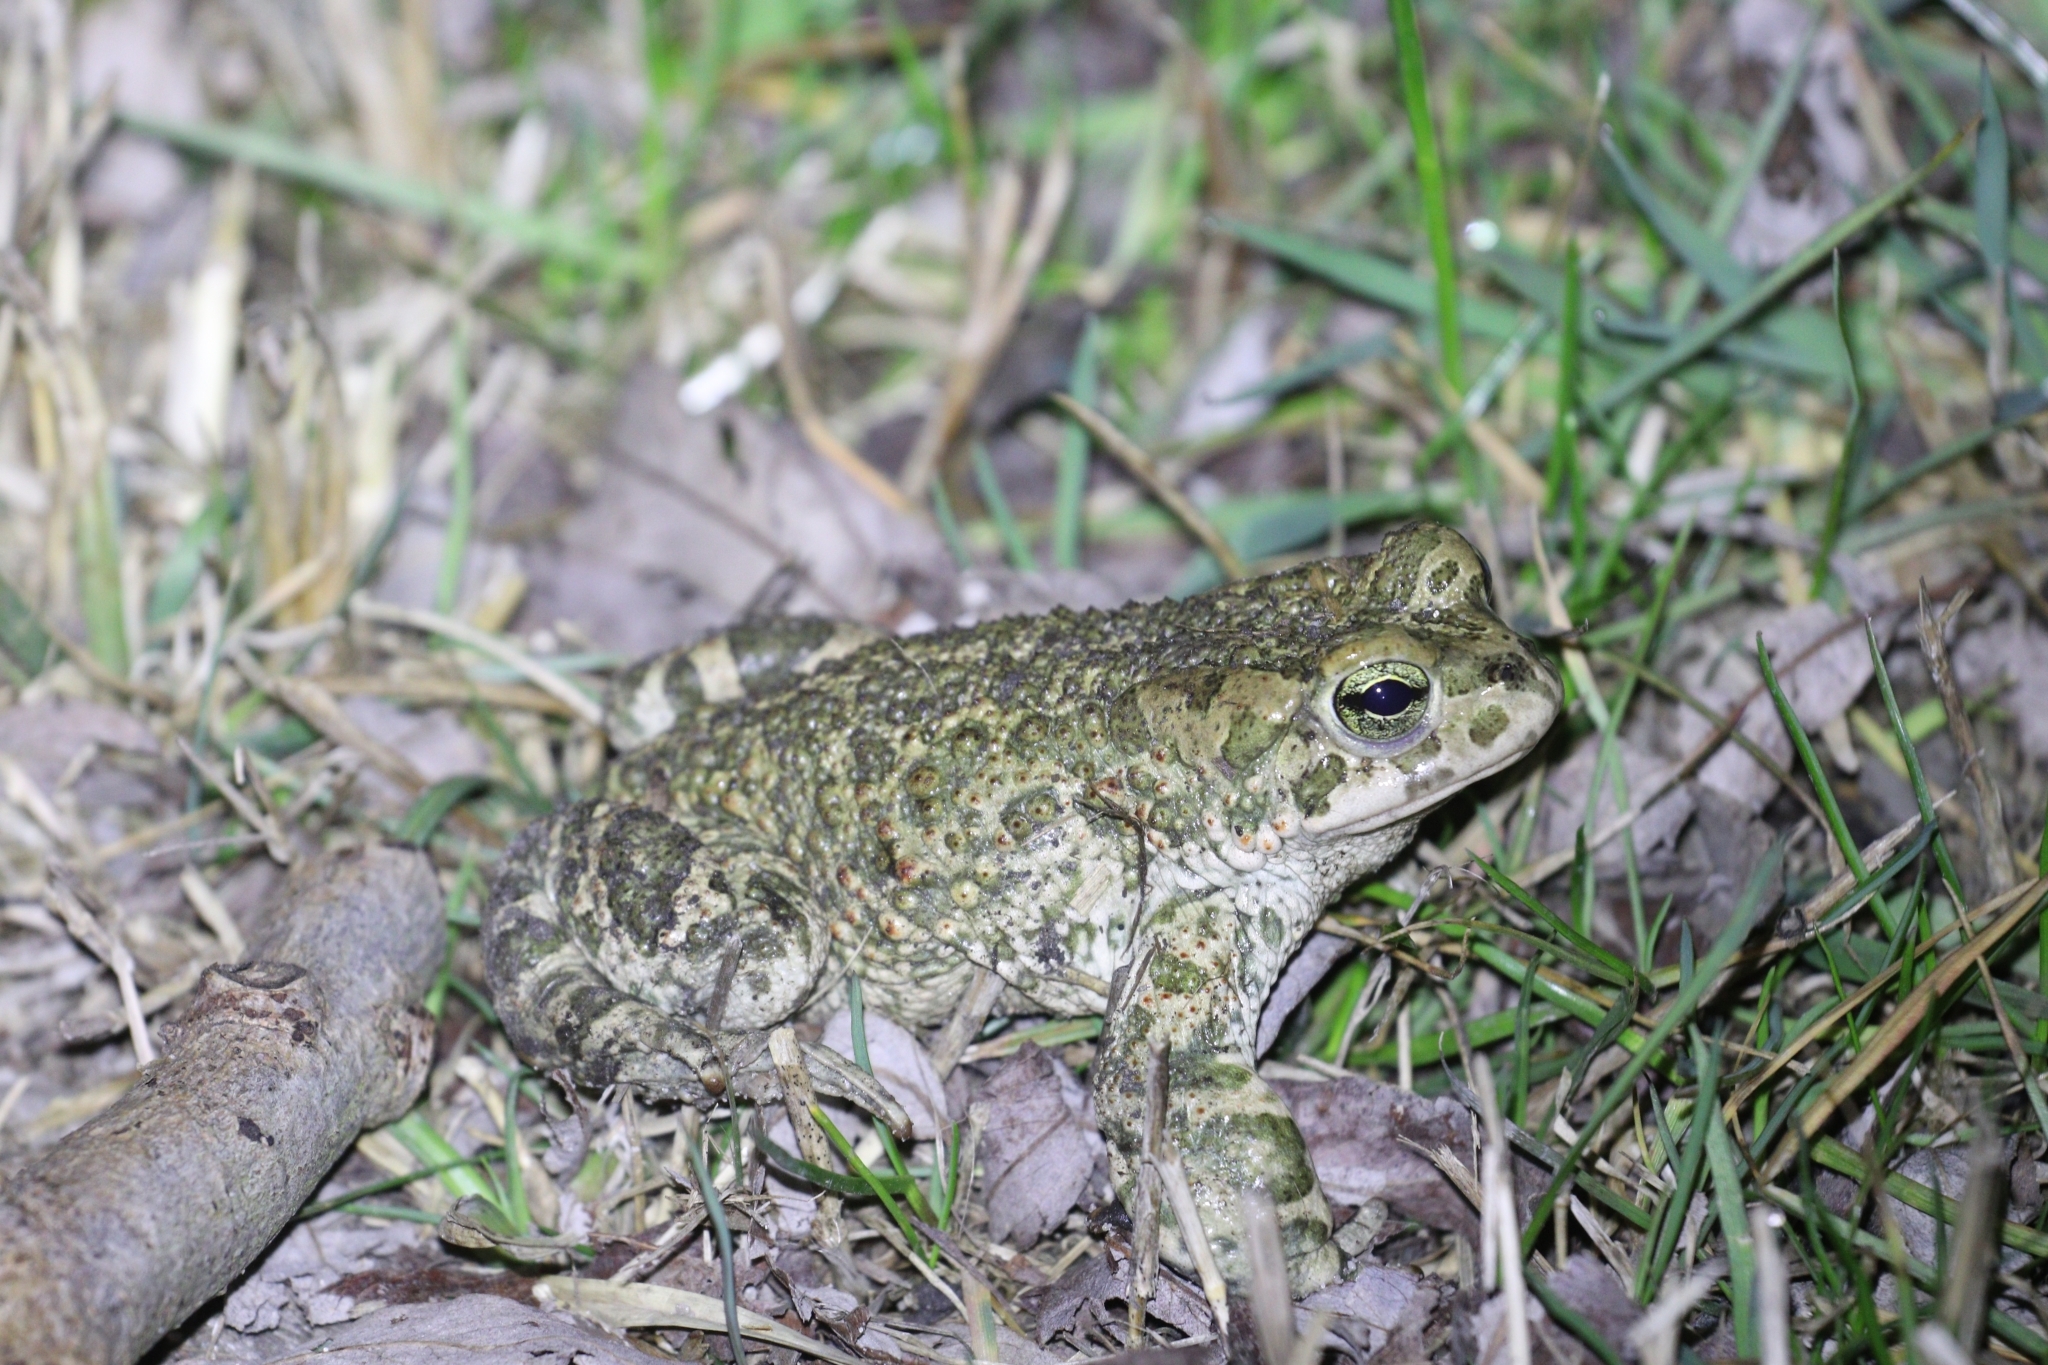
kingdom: Animalia
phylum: Chordata
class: Amphibia
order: Anura
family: Bufonidae
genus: Bufotes
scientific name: Bufotes viridis
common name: European green toad
